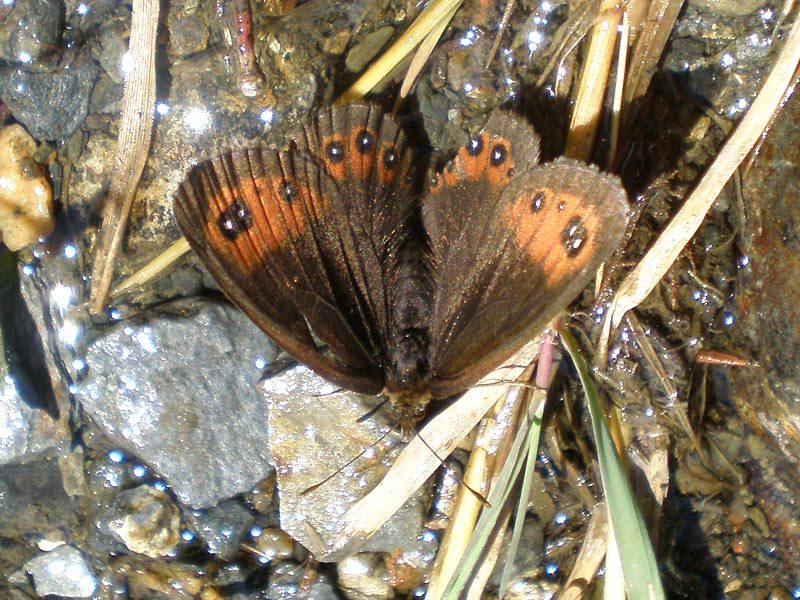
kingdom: Animalia
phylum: Arthropoda
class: Insecta
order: Lepidoptera
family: Nymphalidae
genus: Erebia
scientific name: Erebia meolans
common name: Piedmont ringlet
